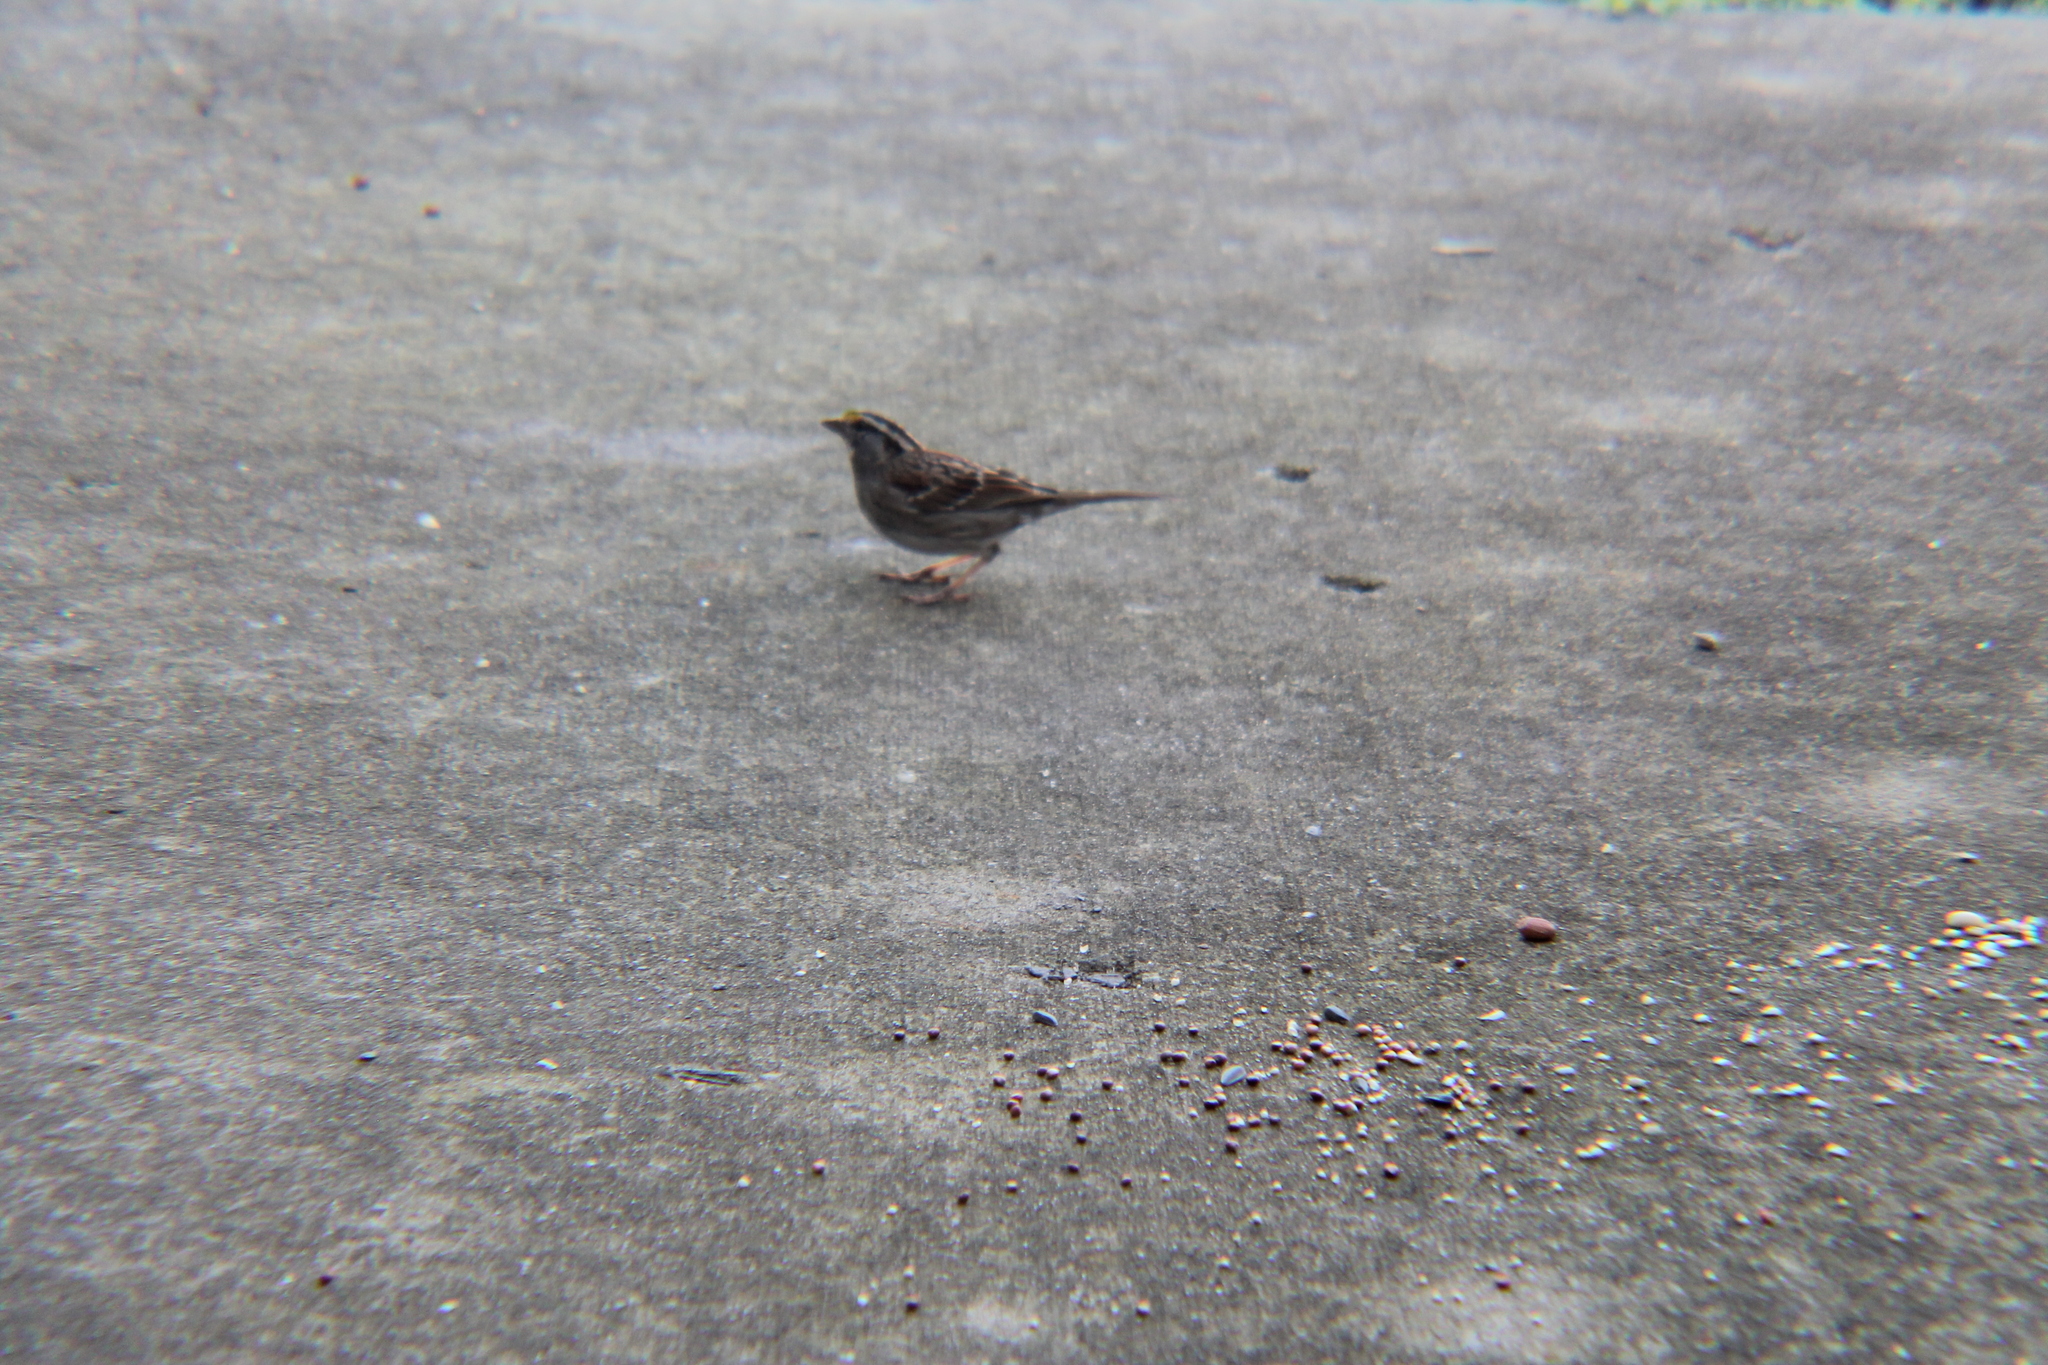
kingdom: Animalia
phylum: Chordata
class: Aves
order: Passeriformes
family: Passerellidae
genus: Zonotrichia
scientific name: Zonotrichia albicollis
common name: White-throated sparrow
